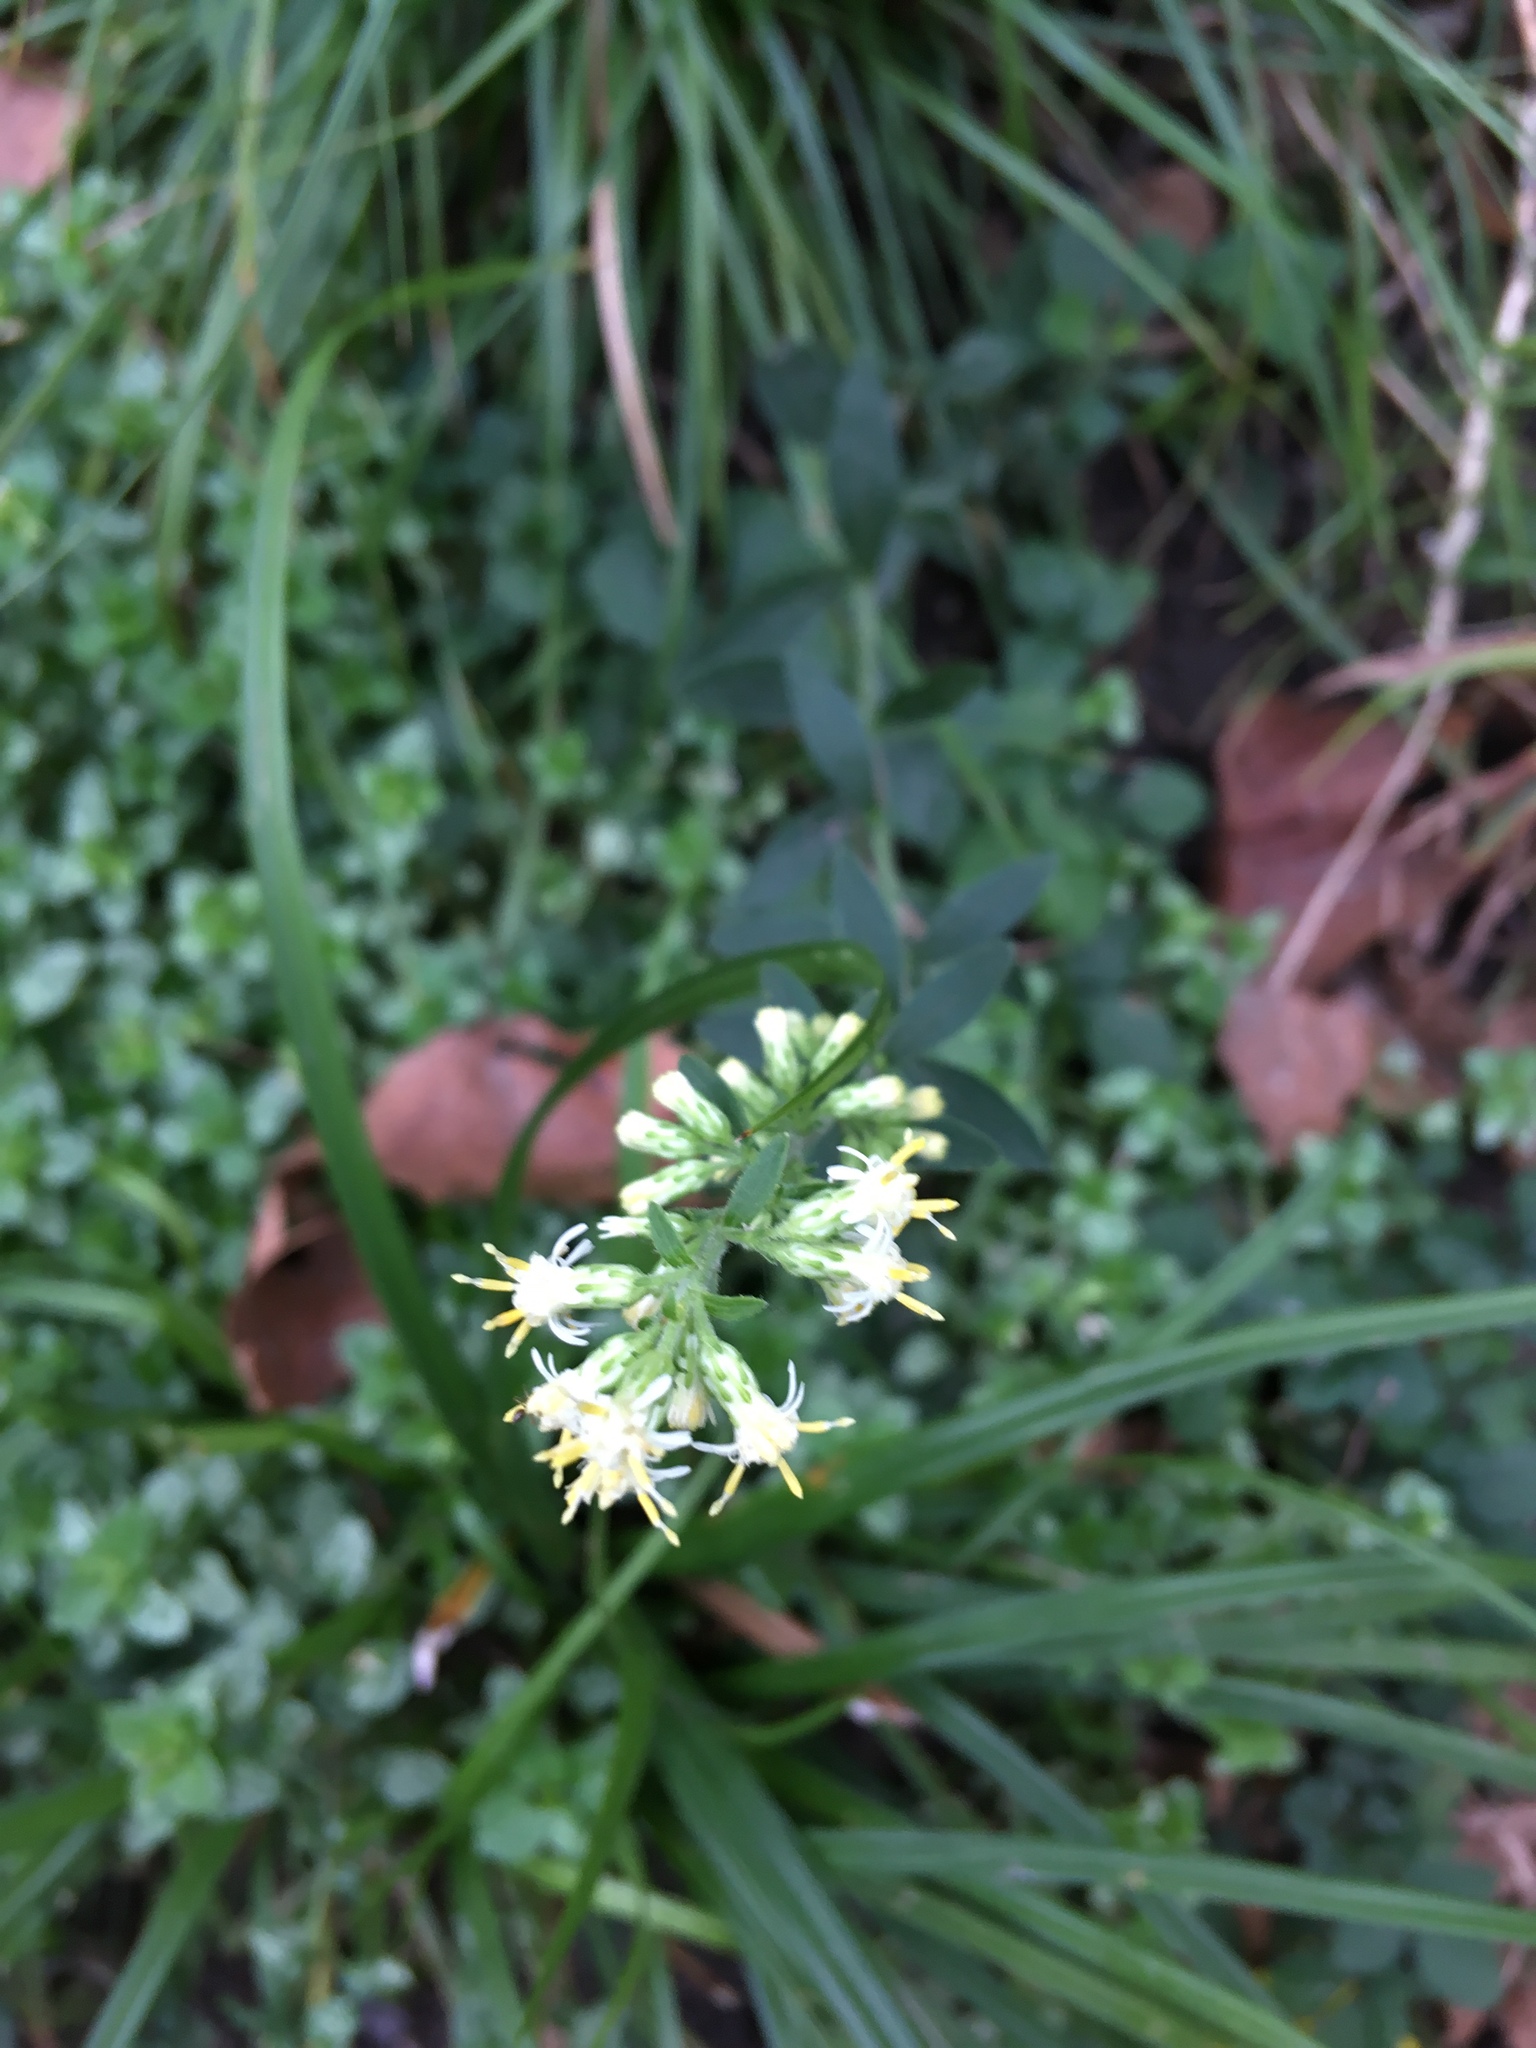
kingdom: Plantae
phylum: Tracheophyta
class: Magnoliopsida
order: Asterales
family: Asteraceae
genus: Solidago
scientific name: Solidago bicolor
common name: Silverrod
